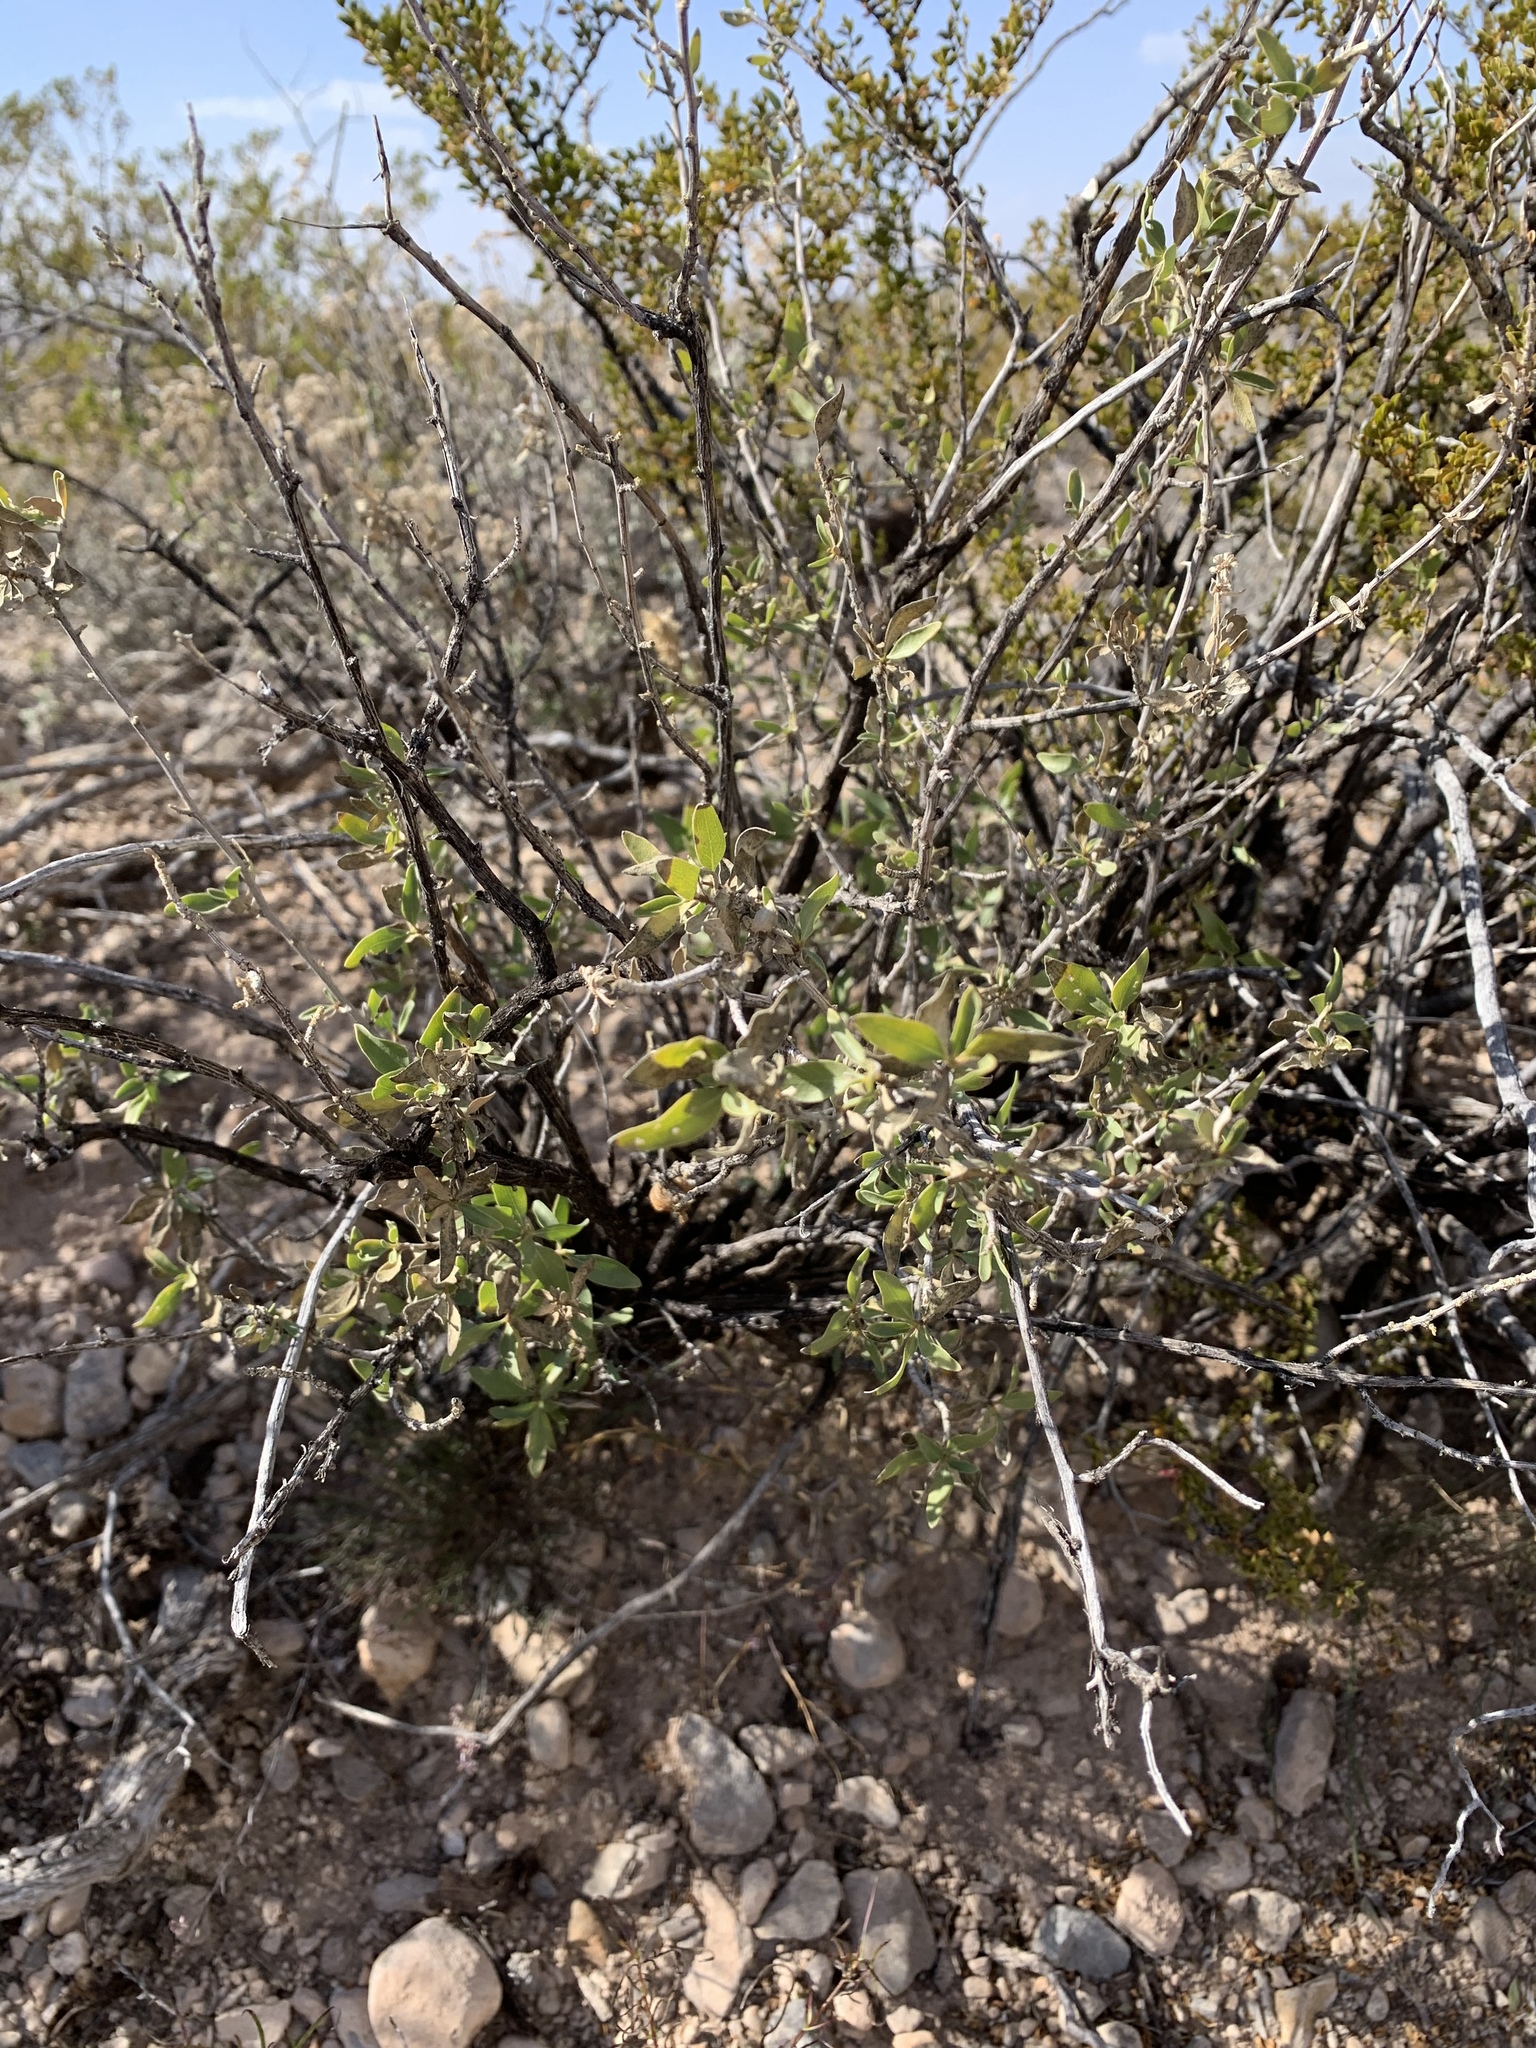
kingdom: Plantae
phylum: Tracheophyta
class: Magnoliopsida
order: Asterales
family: Asteraceae
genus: Flourensia
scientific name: Flourensia cernua
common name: Varnishbush
